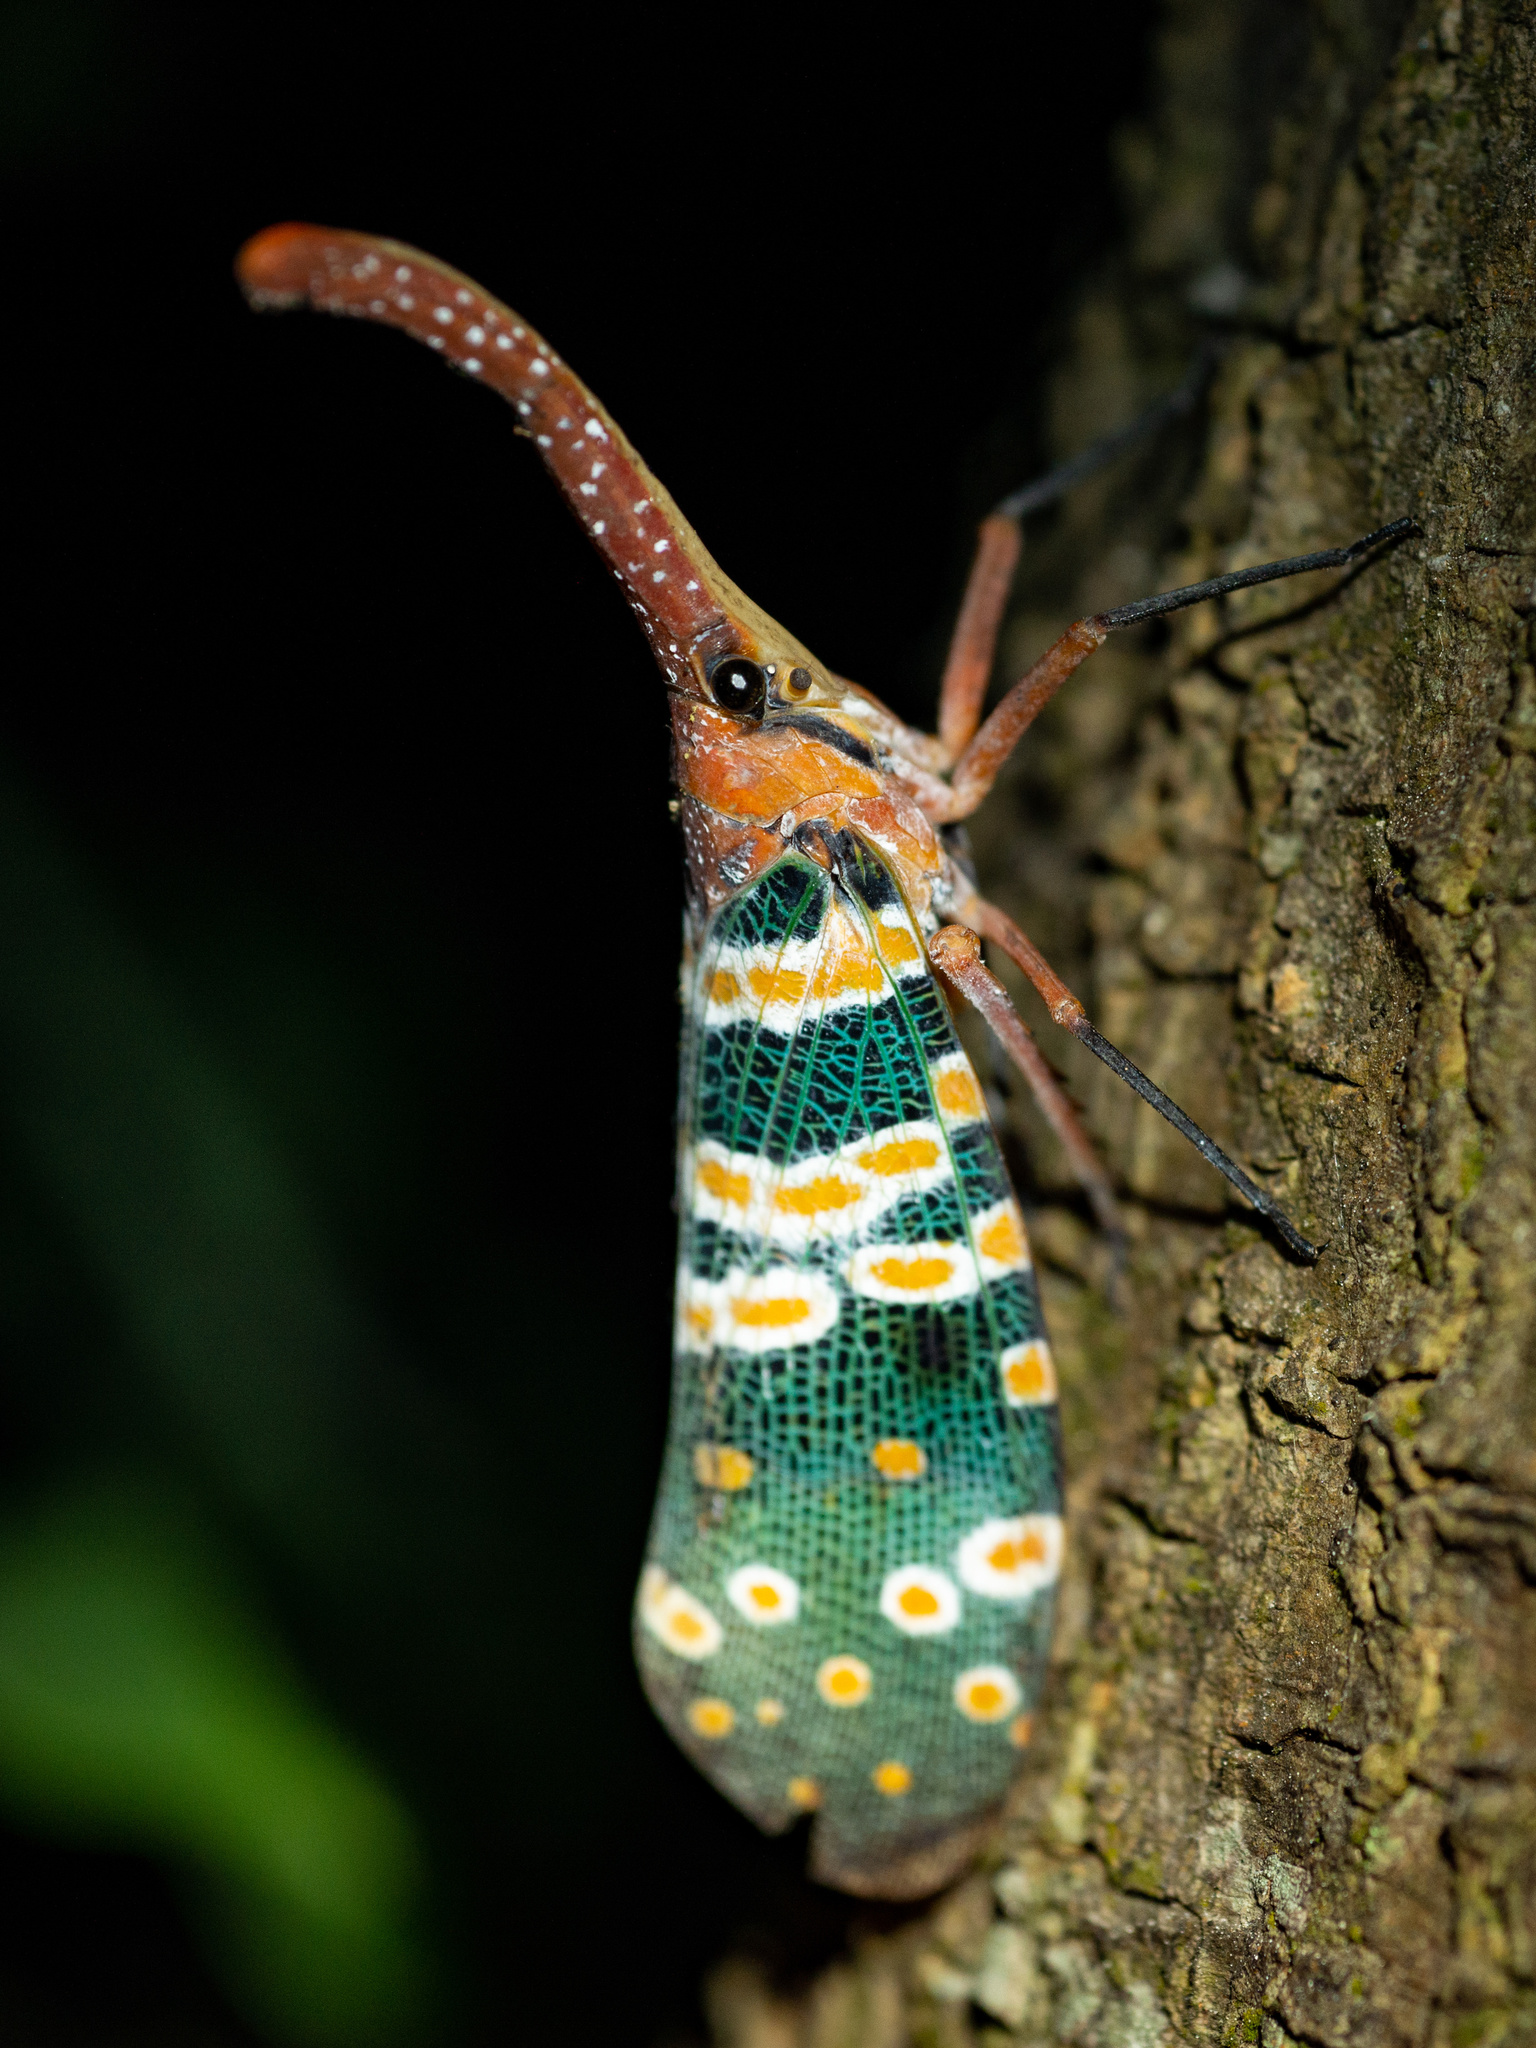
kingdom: Animalia
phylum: Arthropoda
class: Insecta
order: Hemiptera
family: Fulgoridae
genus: Pyrops
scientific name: Pyrops candelaria
